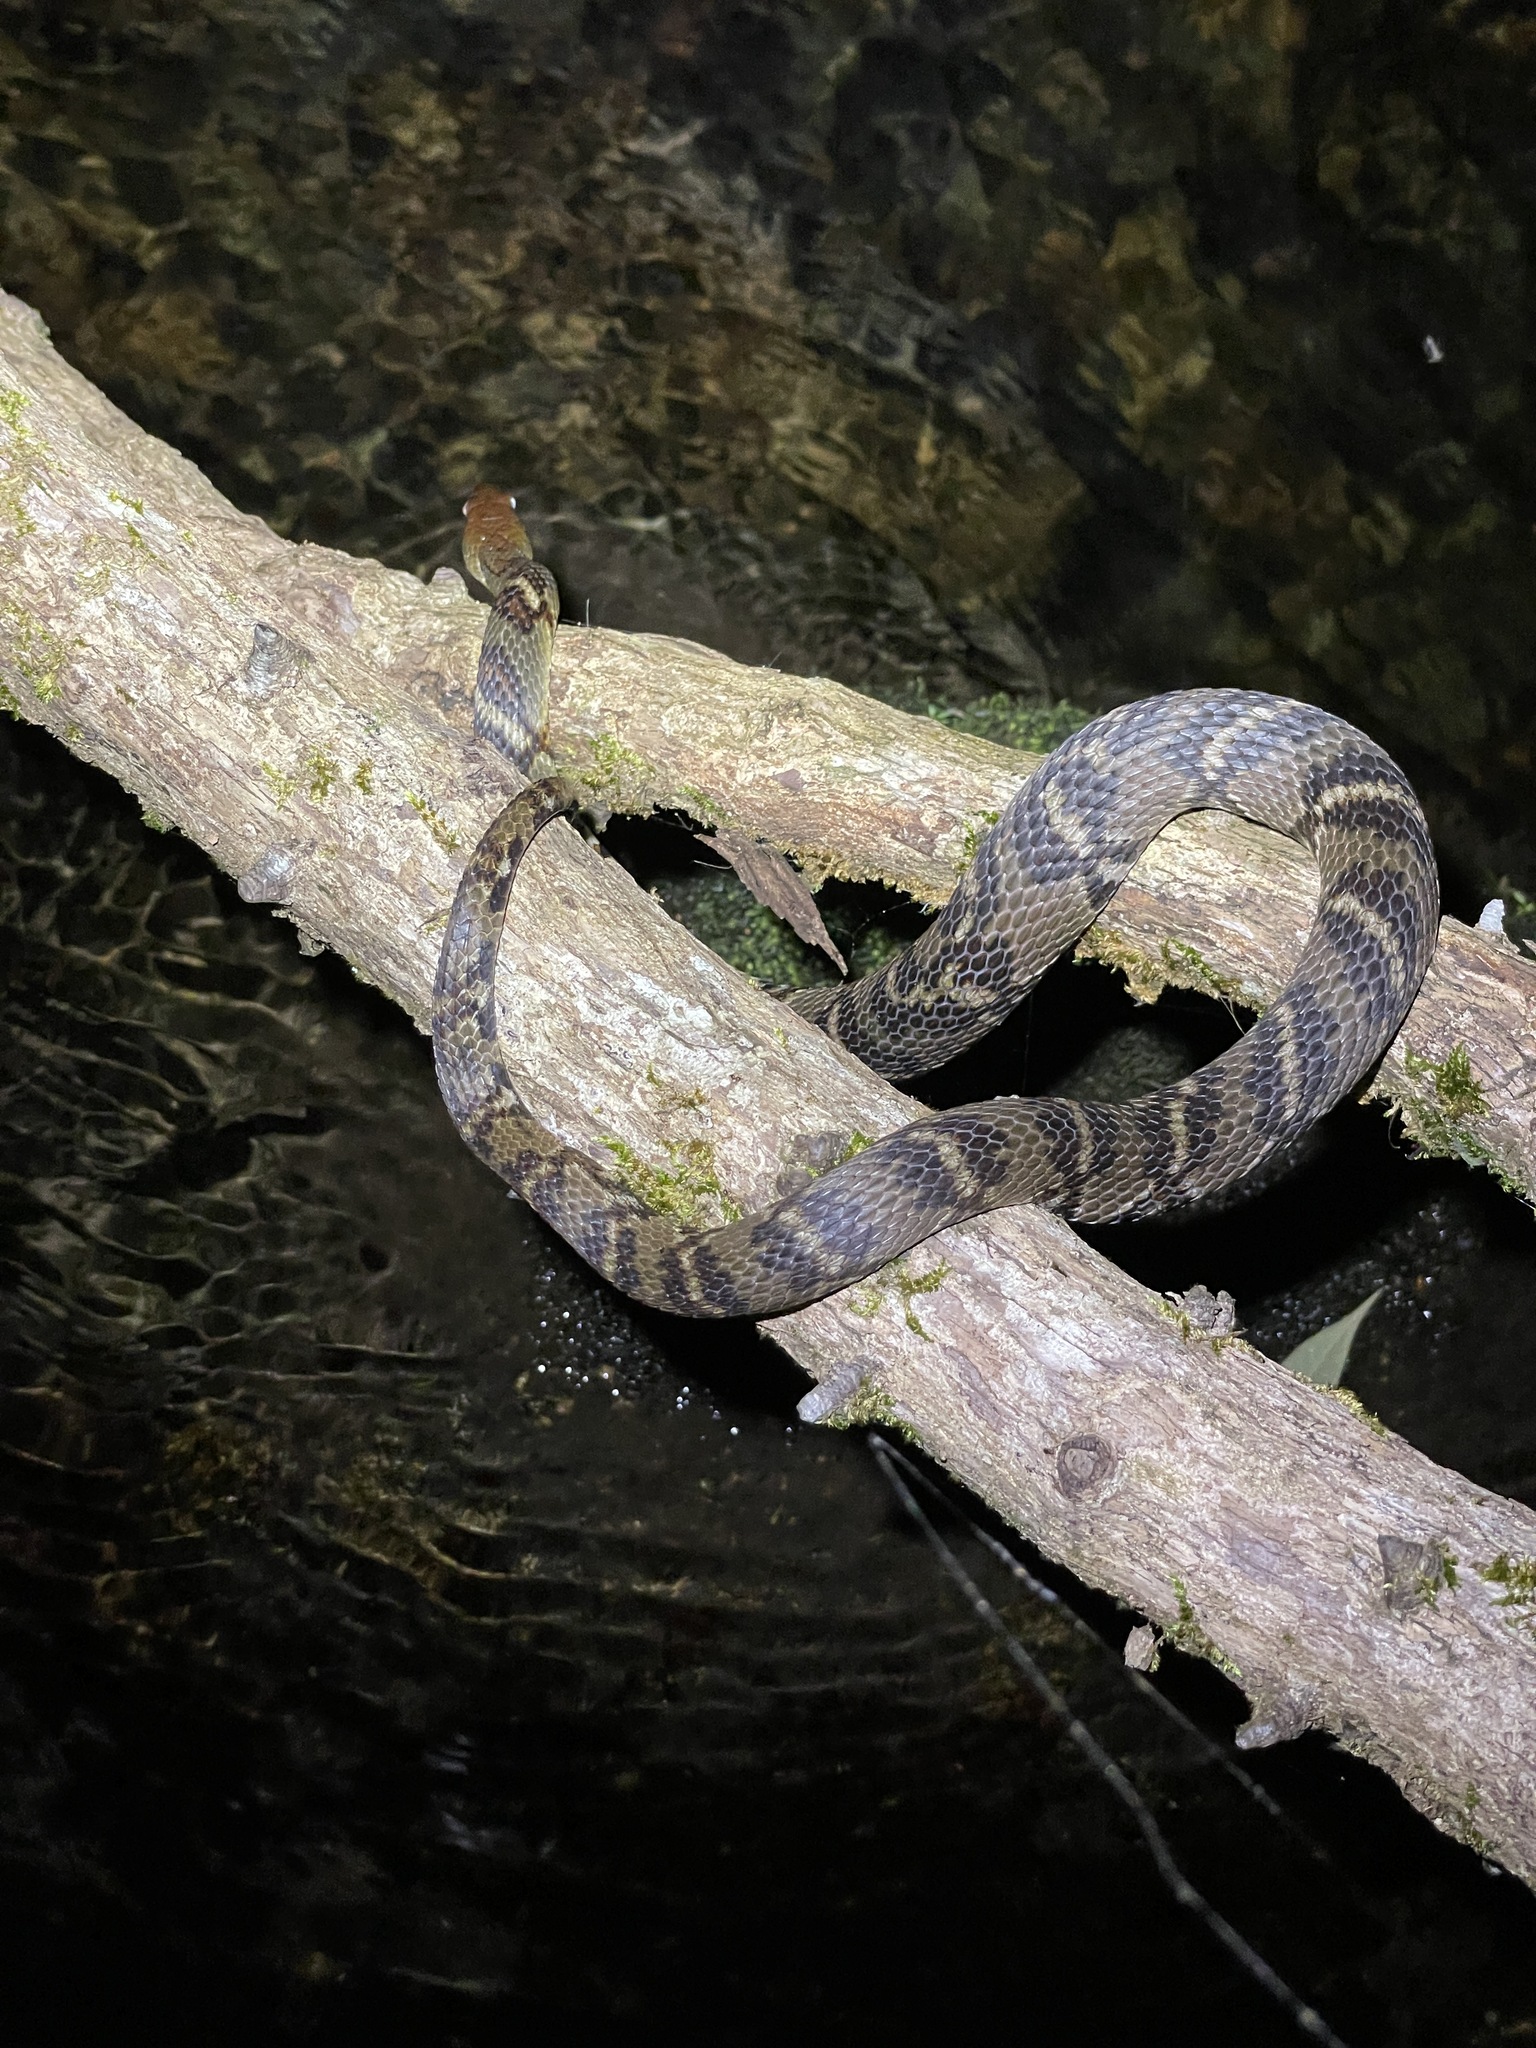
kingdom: Animalia
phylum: Chordata
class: Squamata
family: Colubridae
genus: Trimerodytes
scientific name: Trimerodytes aequifasciatus
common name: Asiatic water snake
